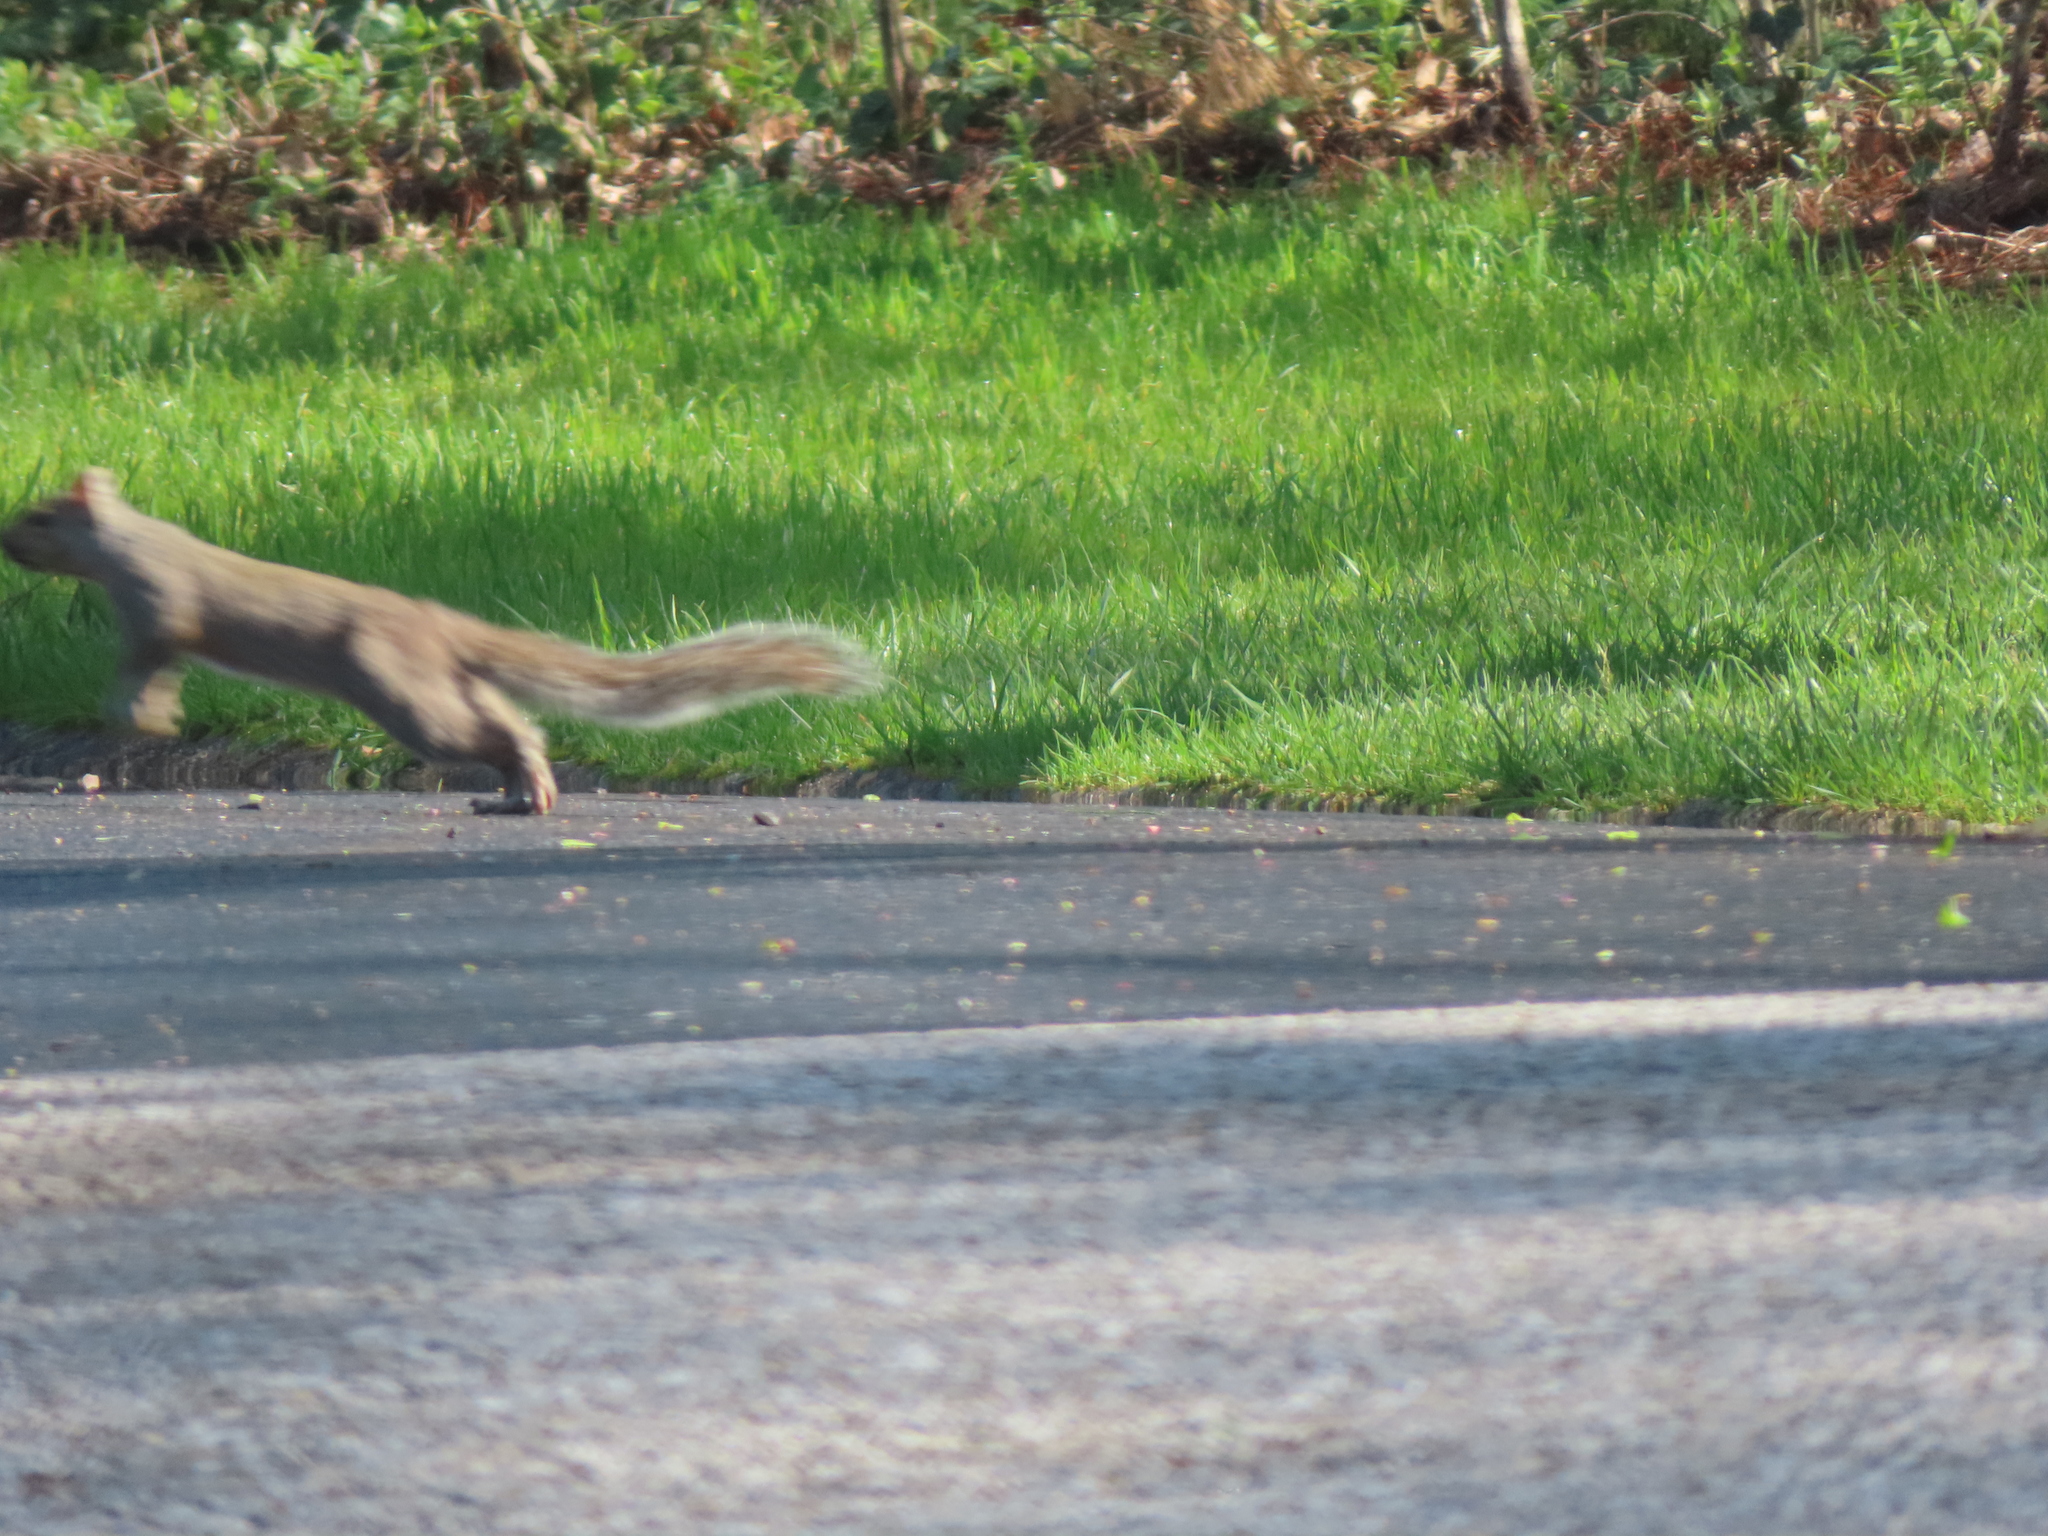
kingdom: Animalia
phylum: Chordata
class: Mammalia
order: Rodentia
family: Sciuridae
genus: Sciurus
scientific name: Sciurus carolinensis
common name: Eastern gray squirrel
